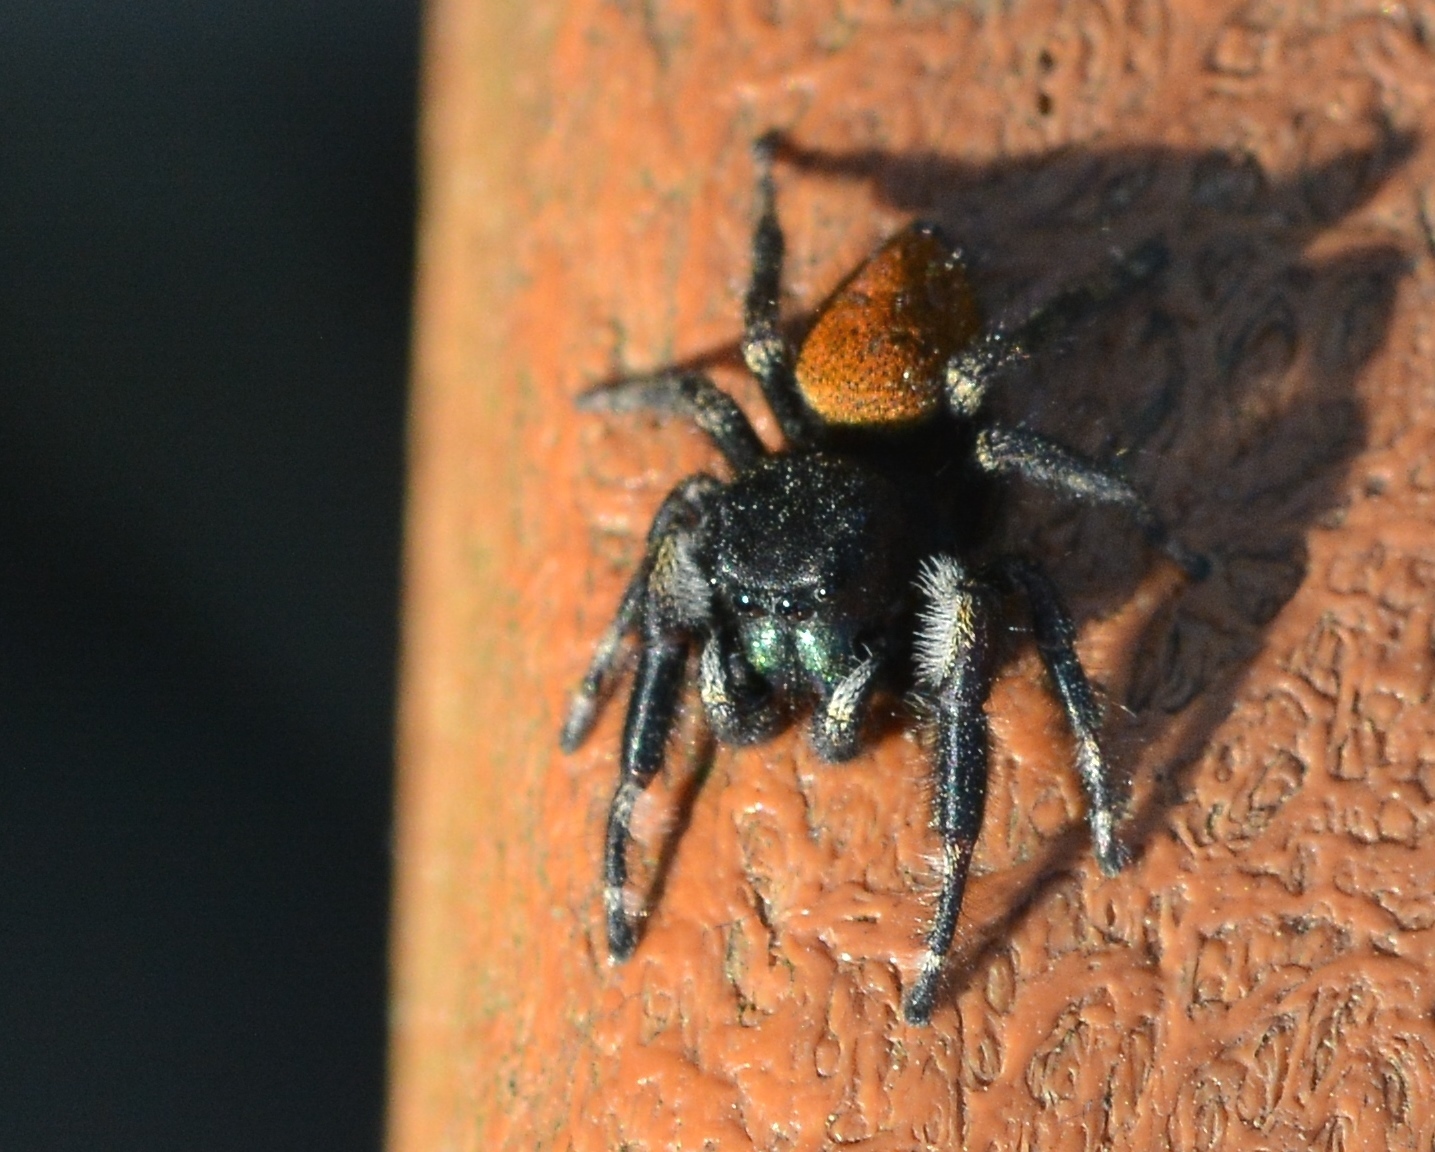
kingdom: Animalia
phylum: Arthropoda
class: Arachnida
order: Araneae
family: Salticidae
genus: Phidippus
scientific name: Phidippus princeps
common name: Grayish jumping spider
